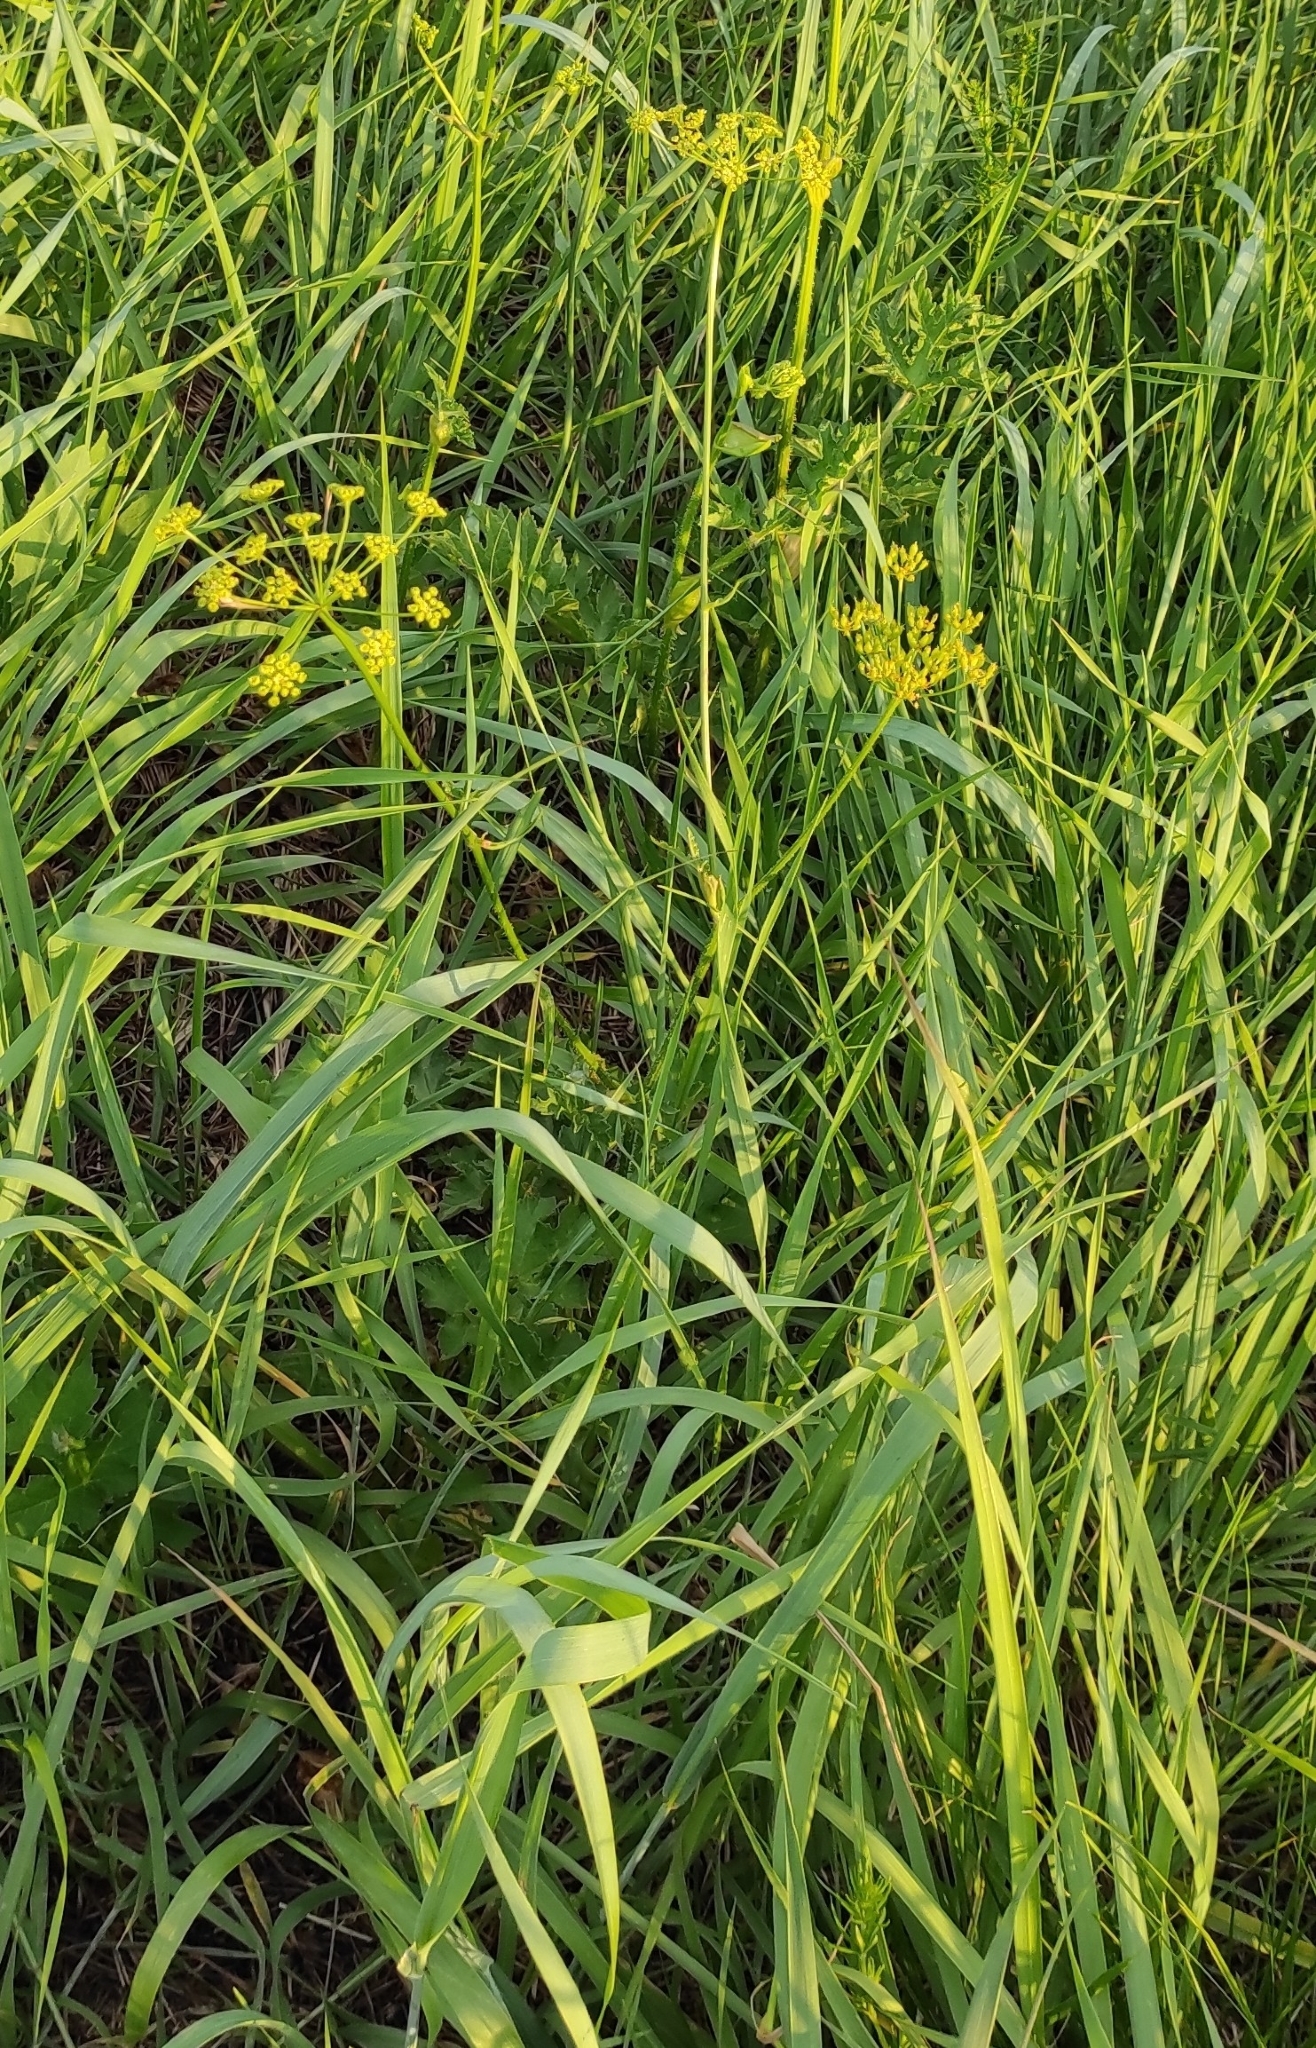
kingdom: Plantae
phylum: Tracheophyta
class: Magnoliopsida
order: Apiales
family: Apiaceae
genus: Pastinaca
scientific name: Pastinaca sativa
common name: Wild parsnip
